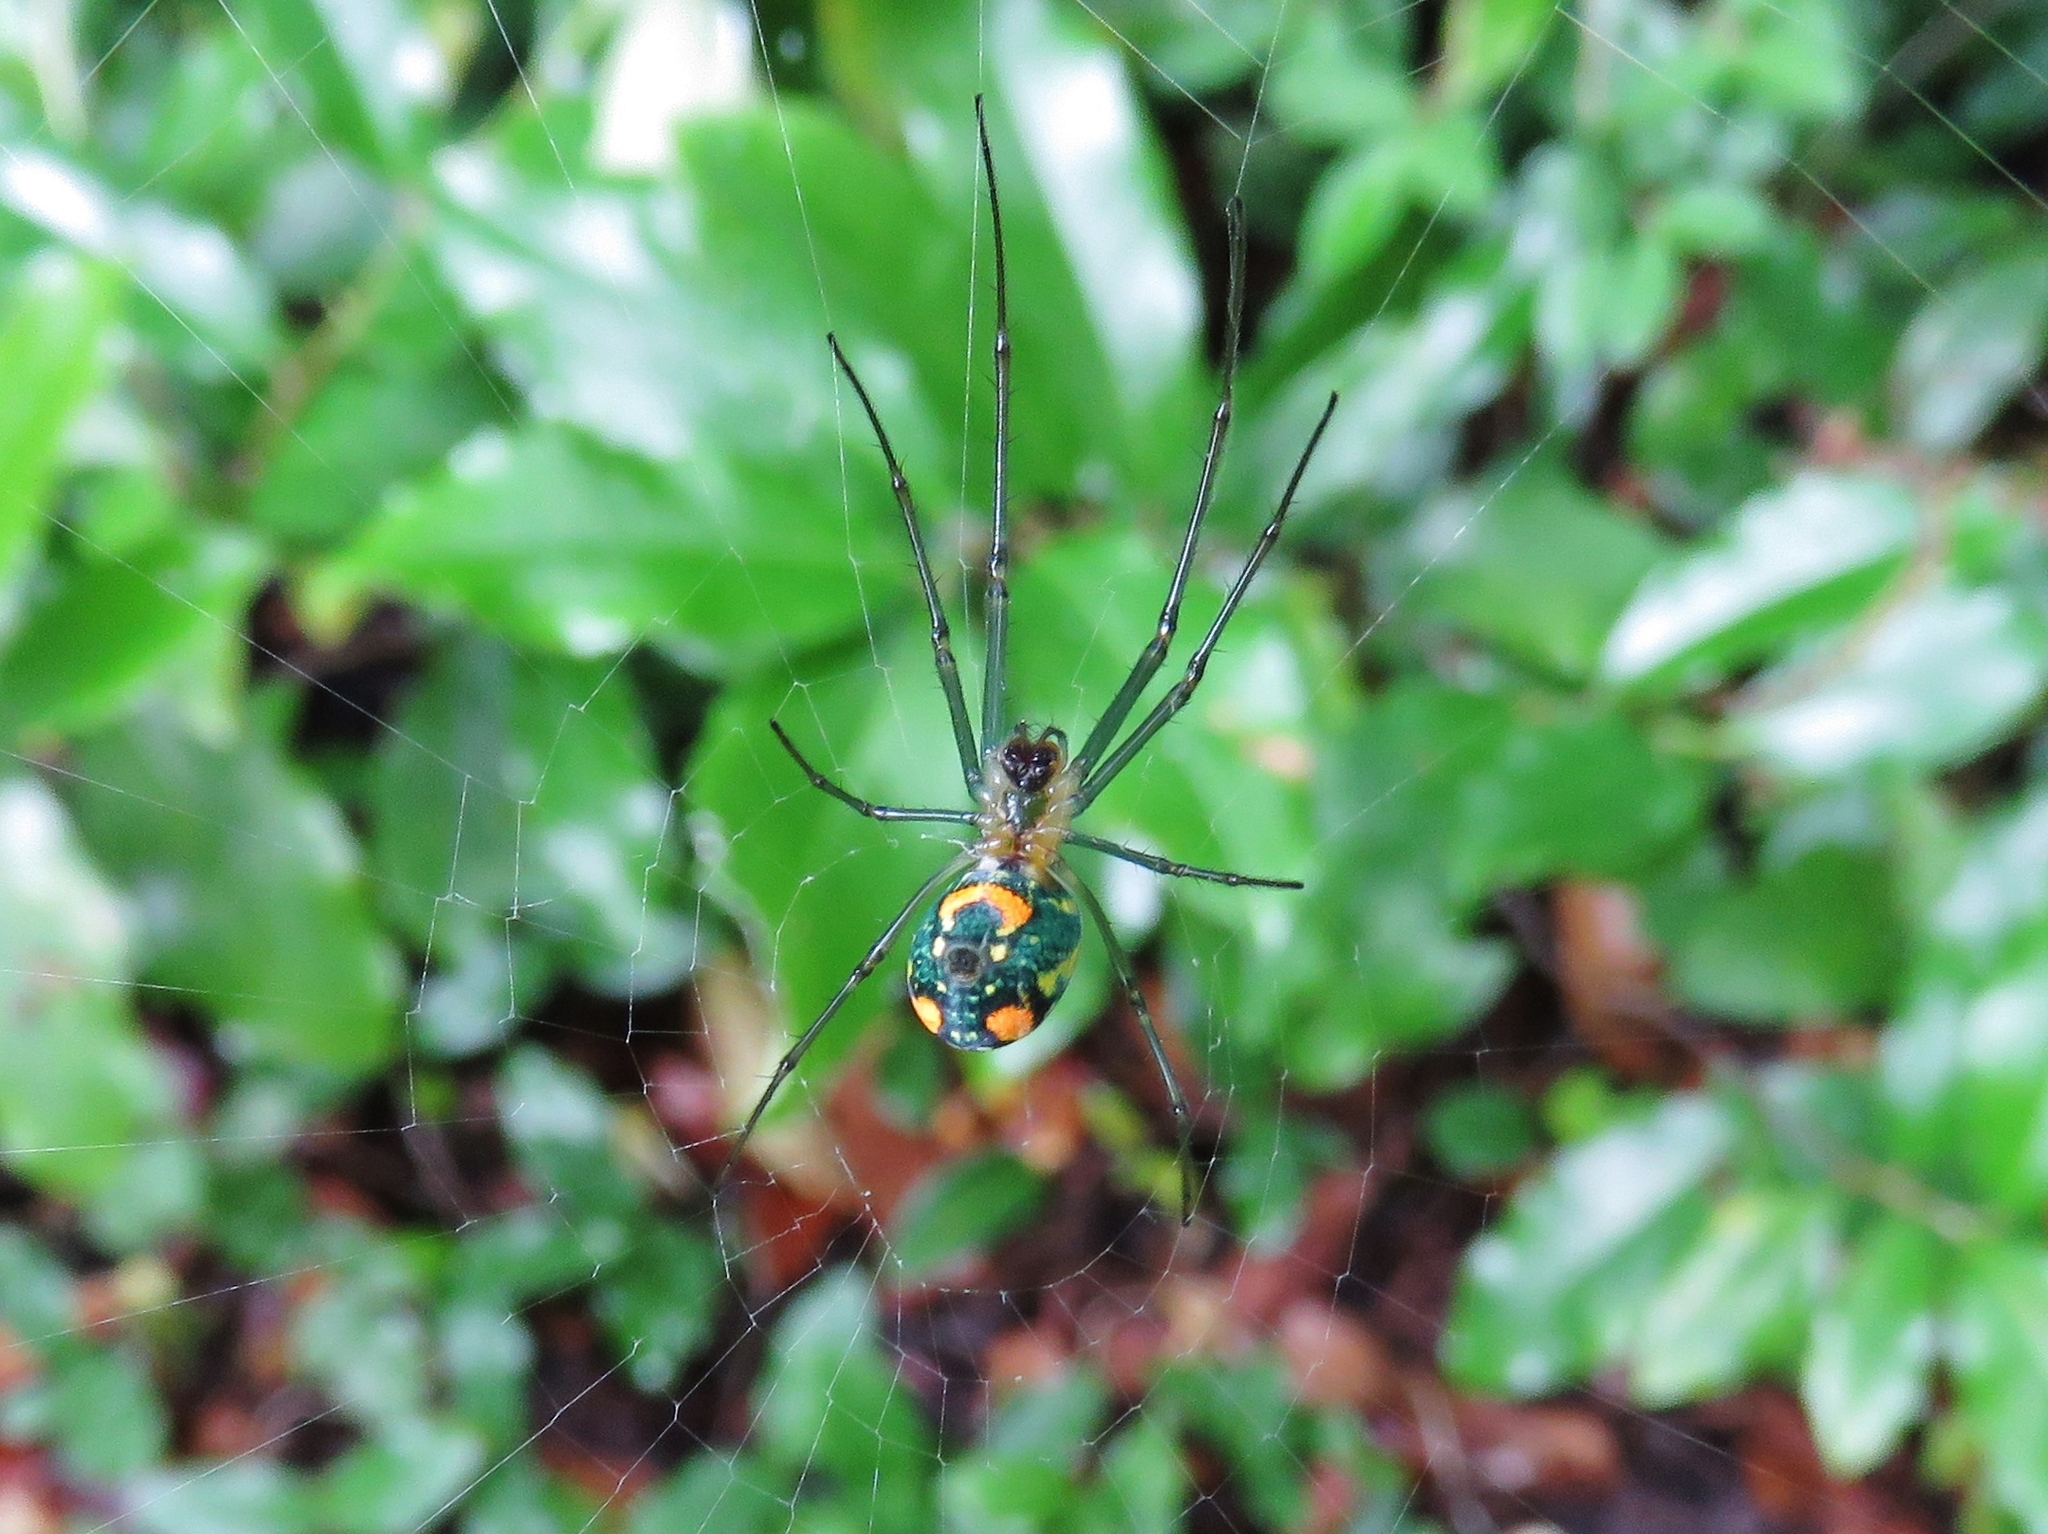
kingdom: Animalia
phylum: Arthropoda
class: Arachnida
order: Araneae
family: Tetragnathidae
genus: Leucauge
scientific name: Leucauge argyrobapta
